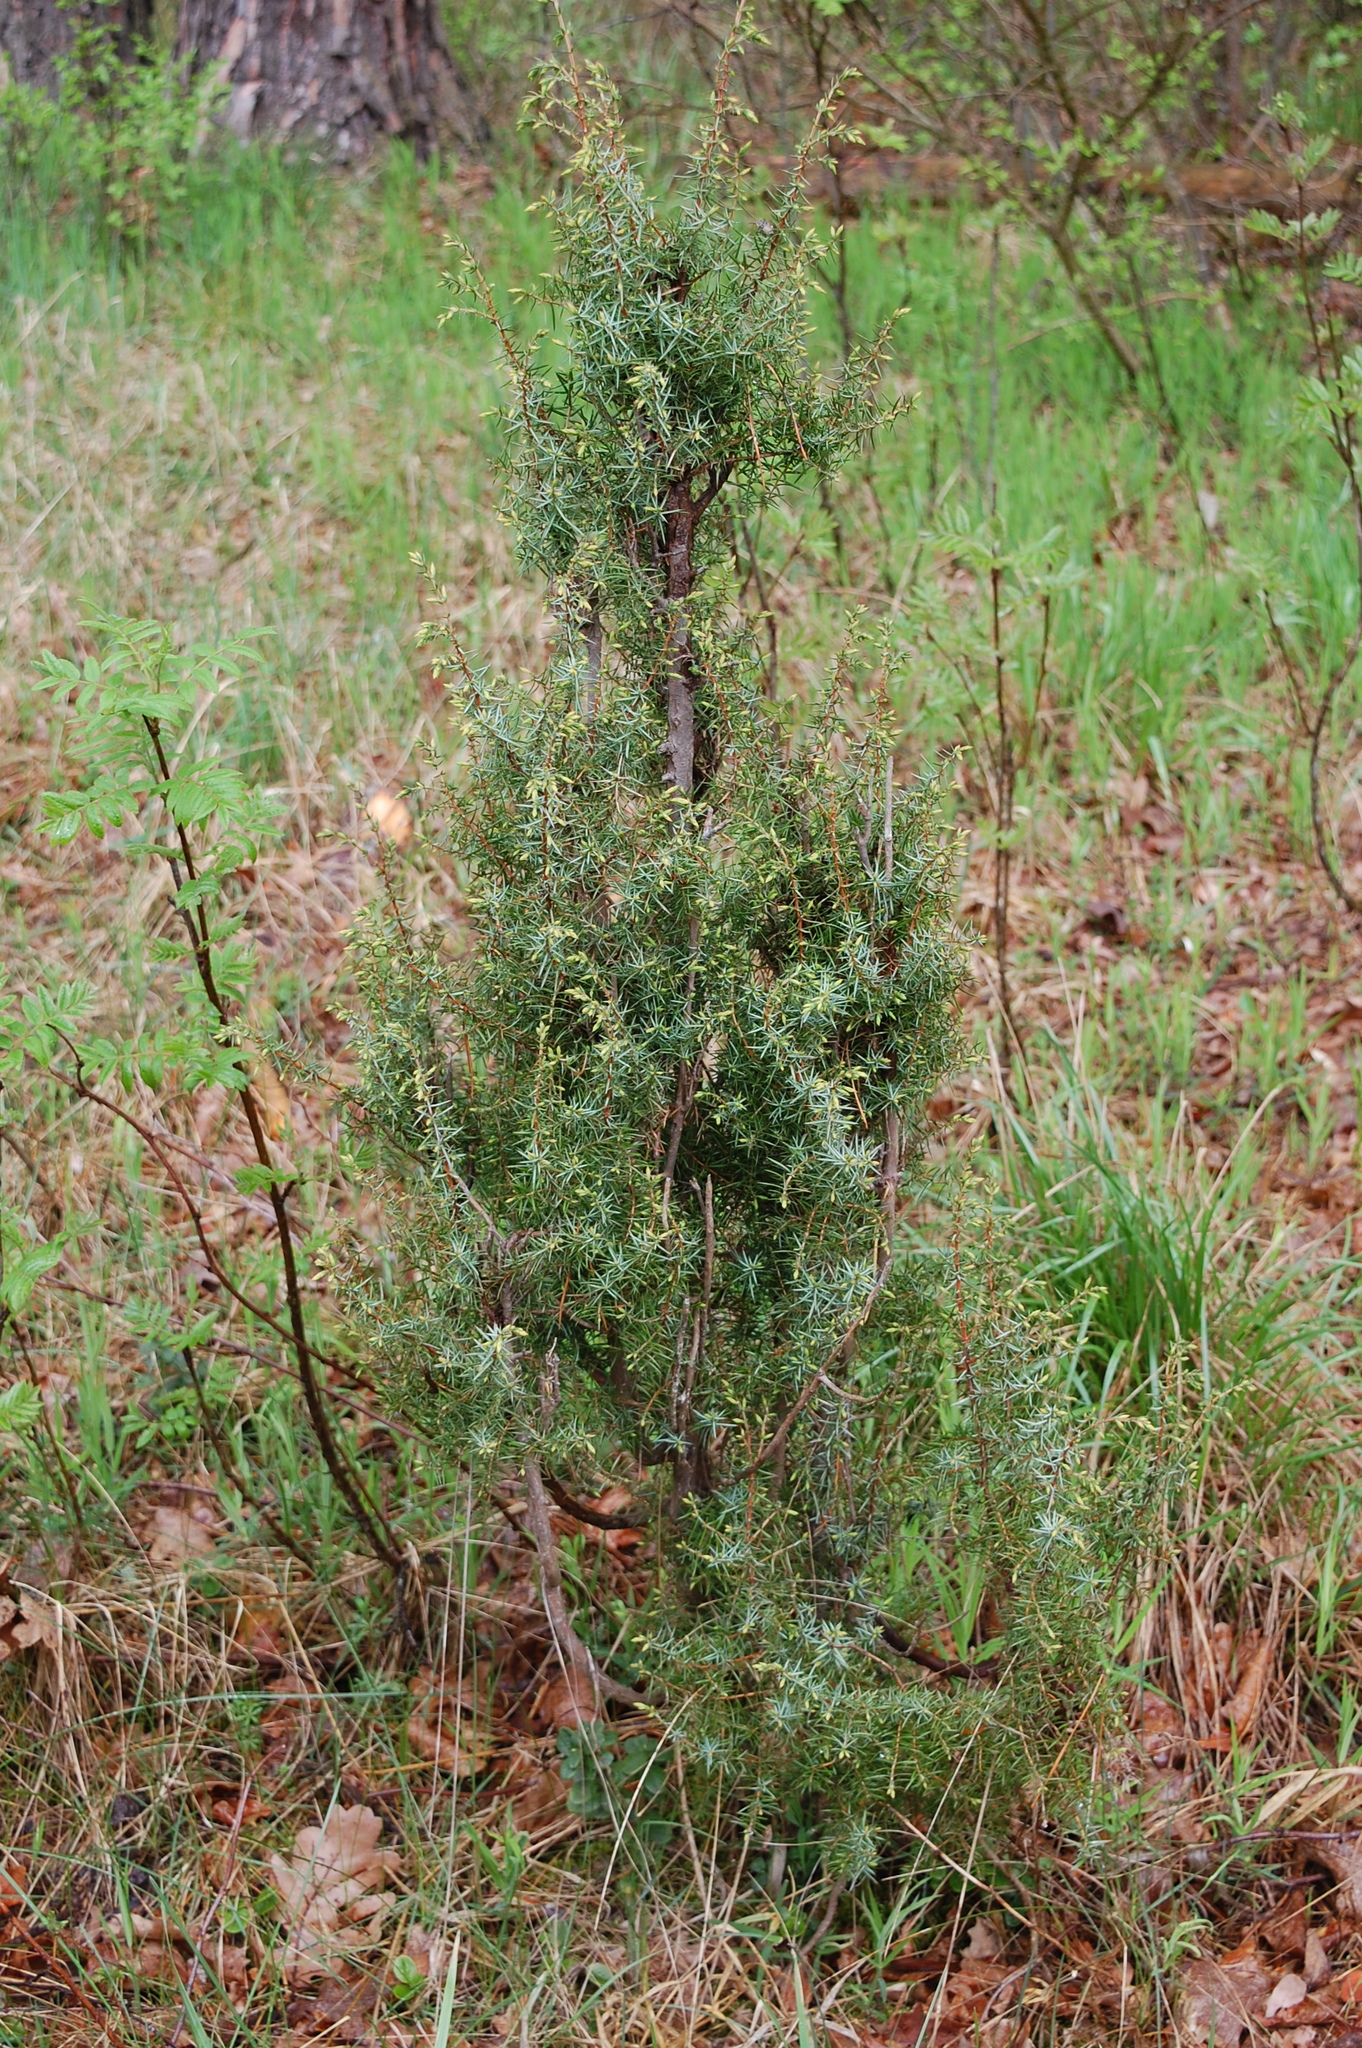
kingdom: Plantae
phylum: Tracheophyta
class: Pinopsida
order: Pinales
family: Cupressaceae
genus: Juniperus
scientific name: Juniperus communis
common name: Common juniper
